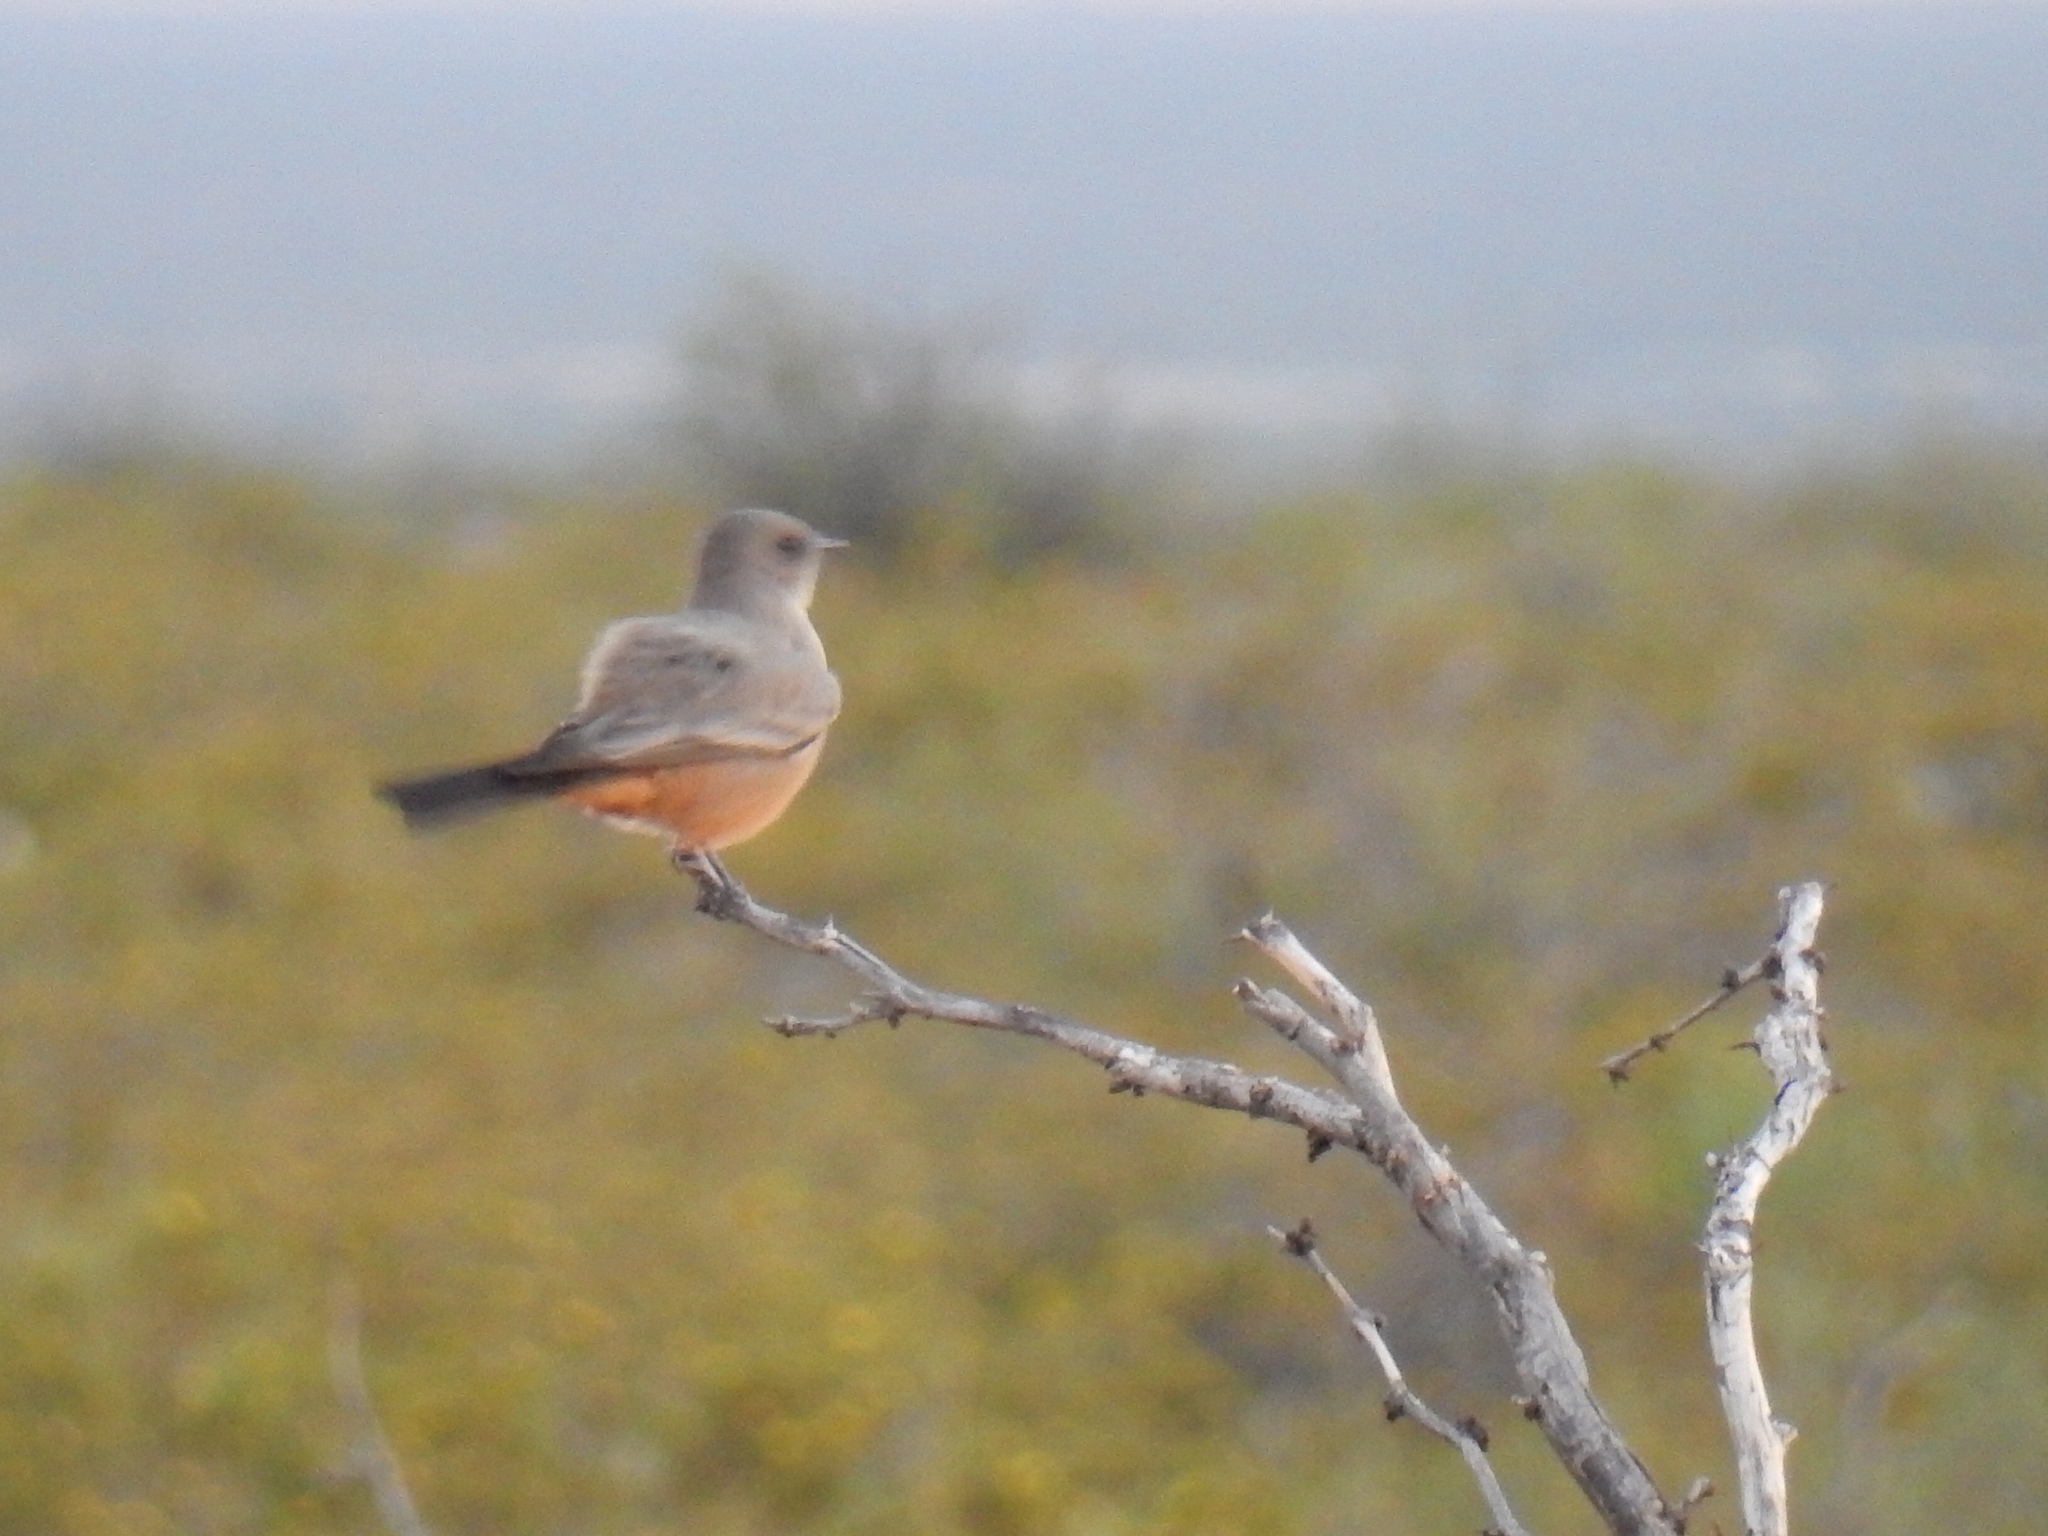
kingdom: Animalia
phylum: Chordata
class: Aves
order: Passeriformes
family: Tyrannidae
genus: Sayornis
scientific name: Sayornis saya
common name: Say's phoebe
